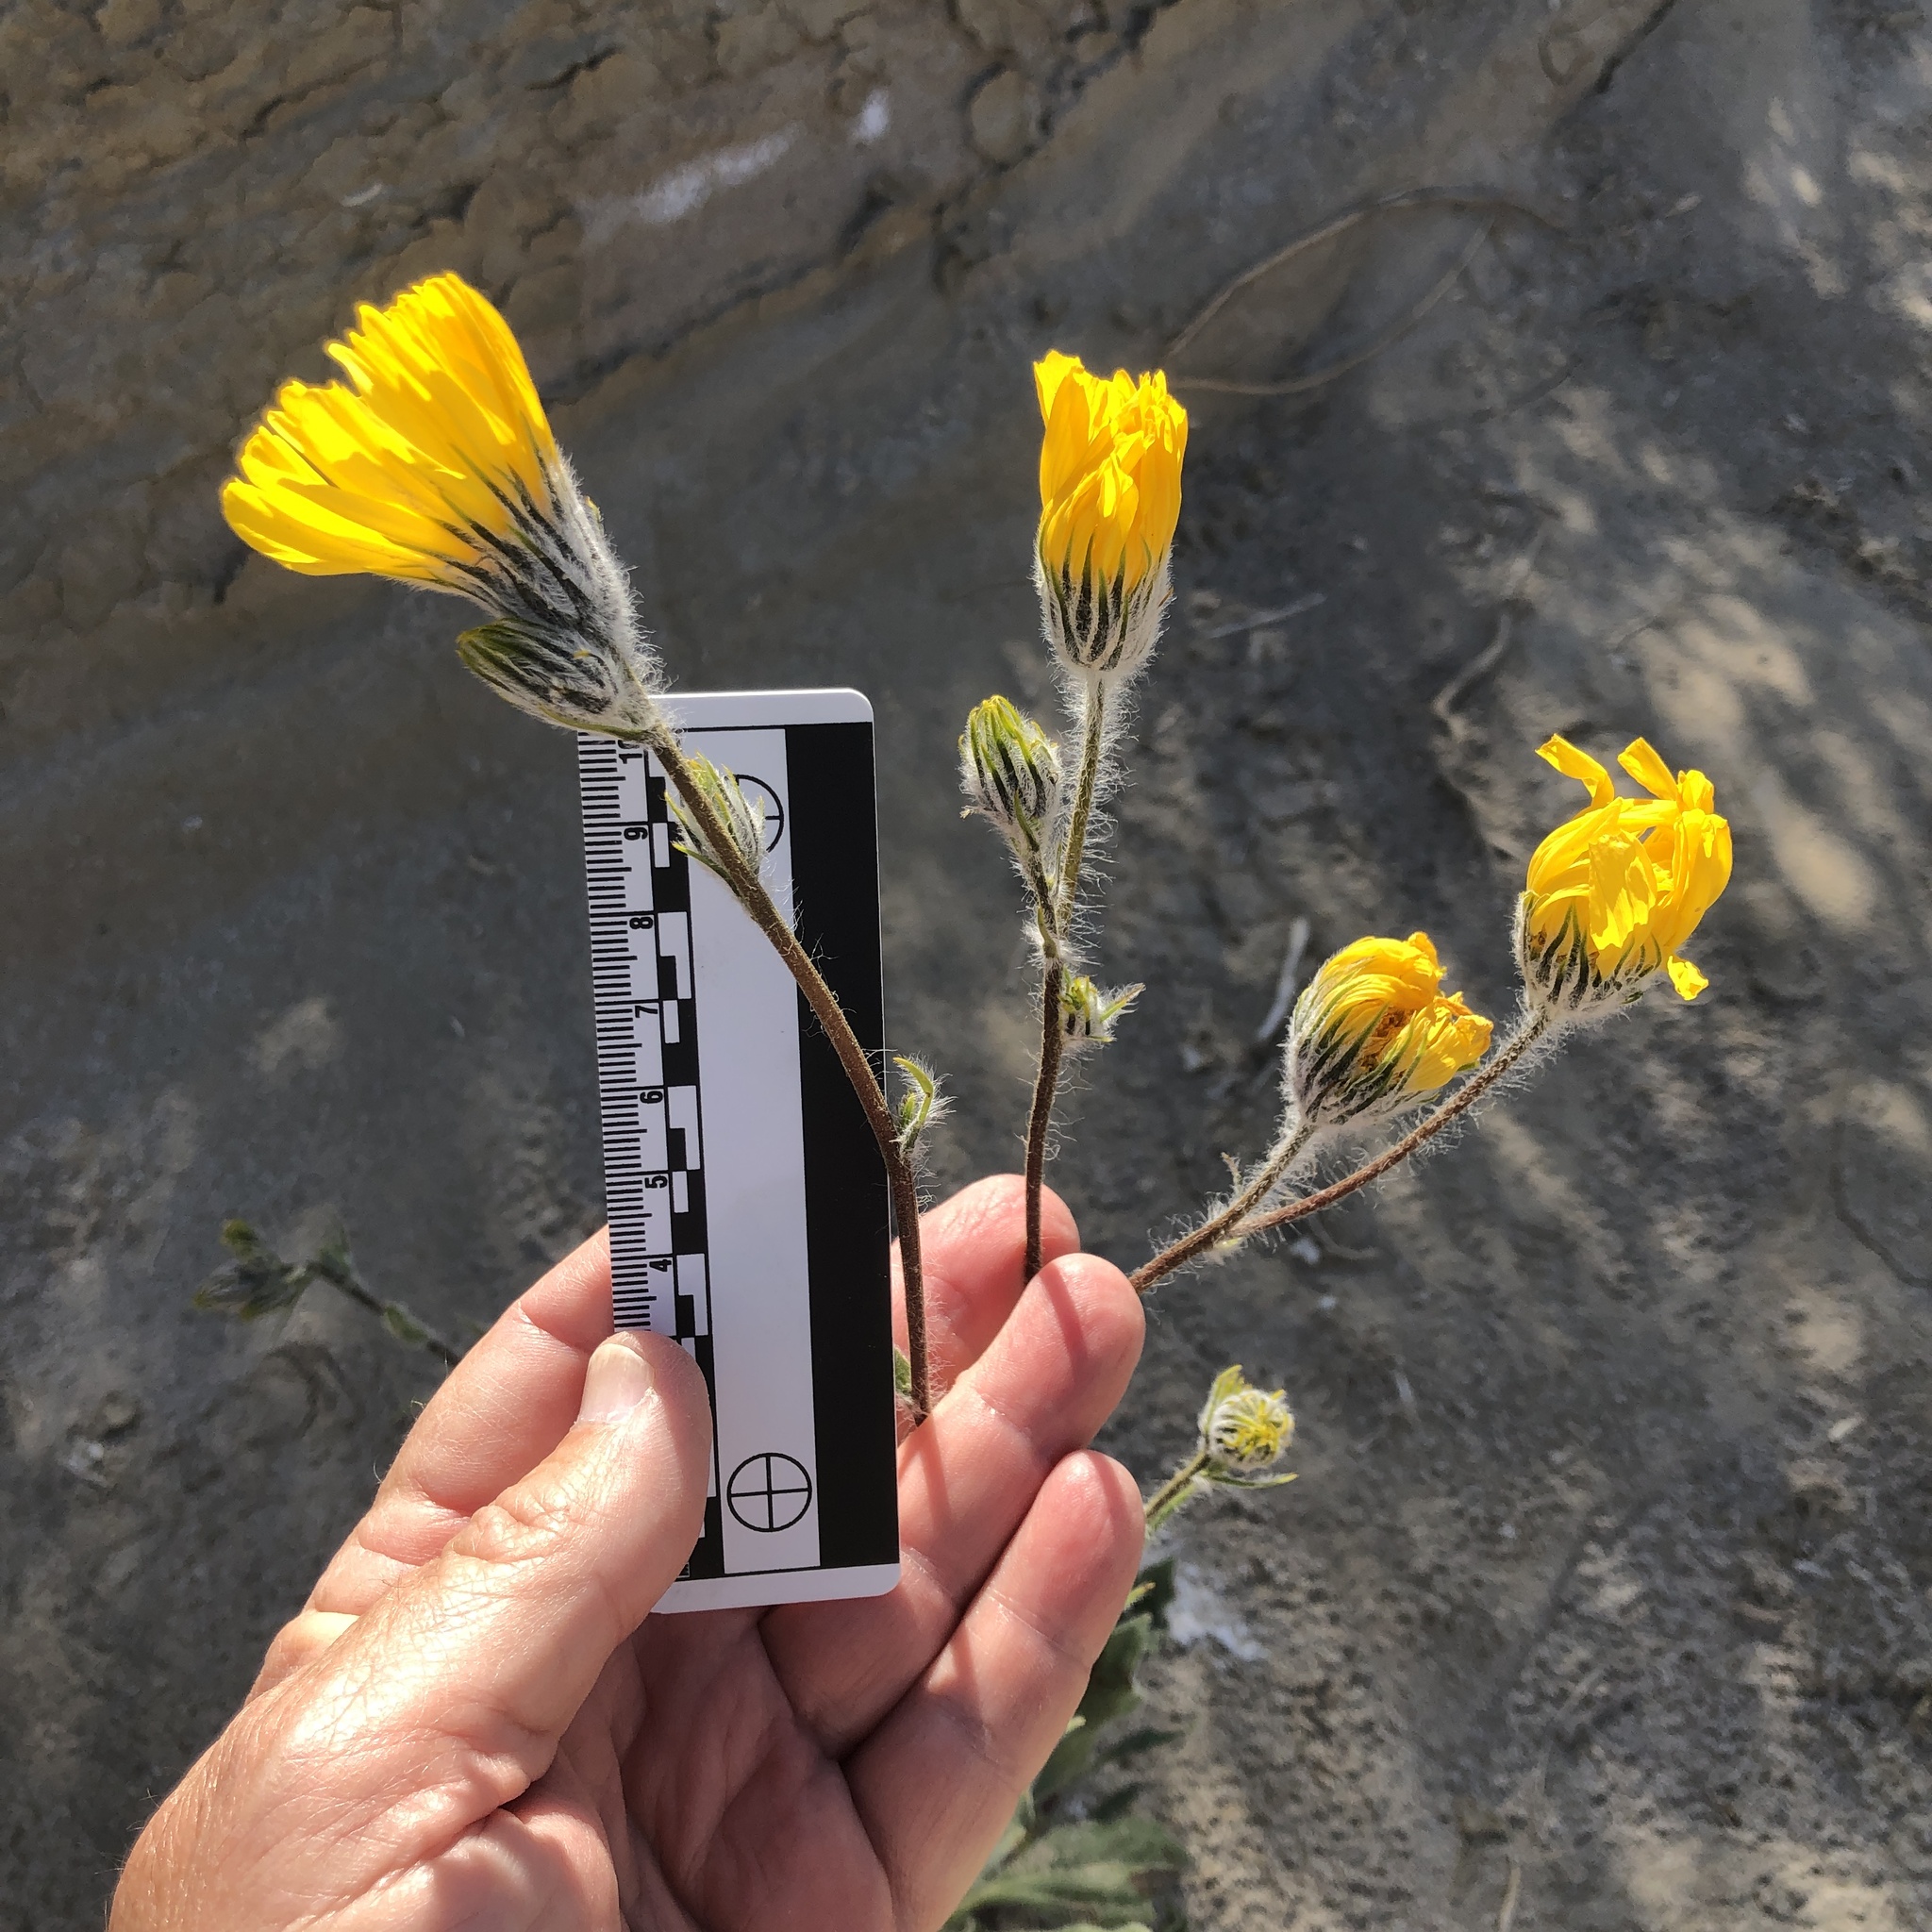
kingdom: Plantae
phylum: Tracheophyta
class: Magnoliopsida
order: Asterales
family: Asteraceae
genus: Geraea
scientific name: Geraea canescens
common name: Desert-gold
